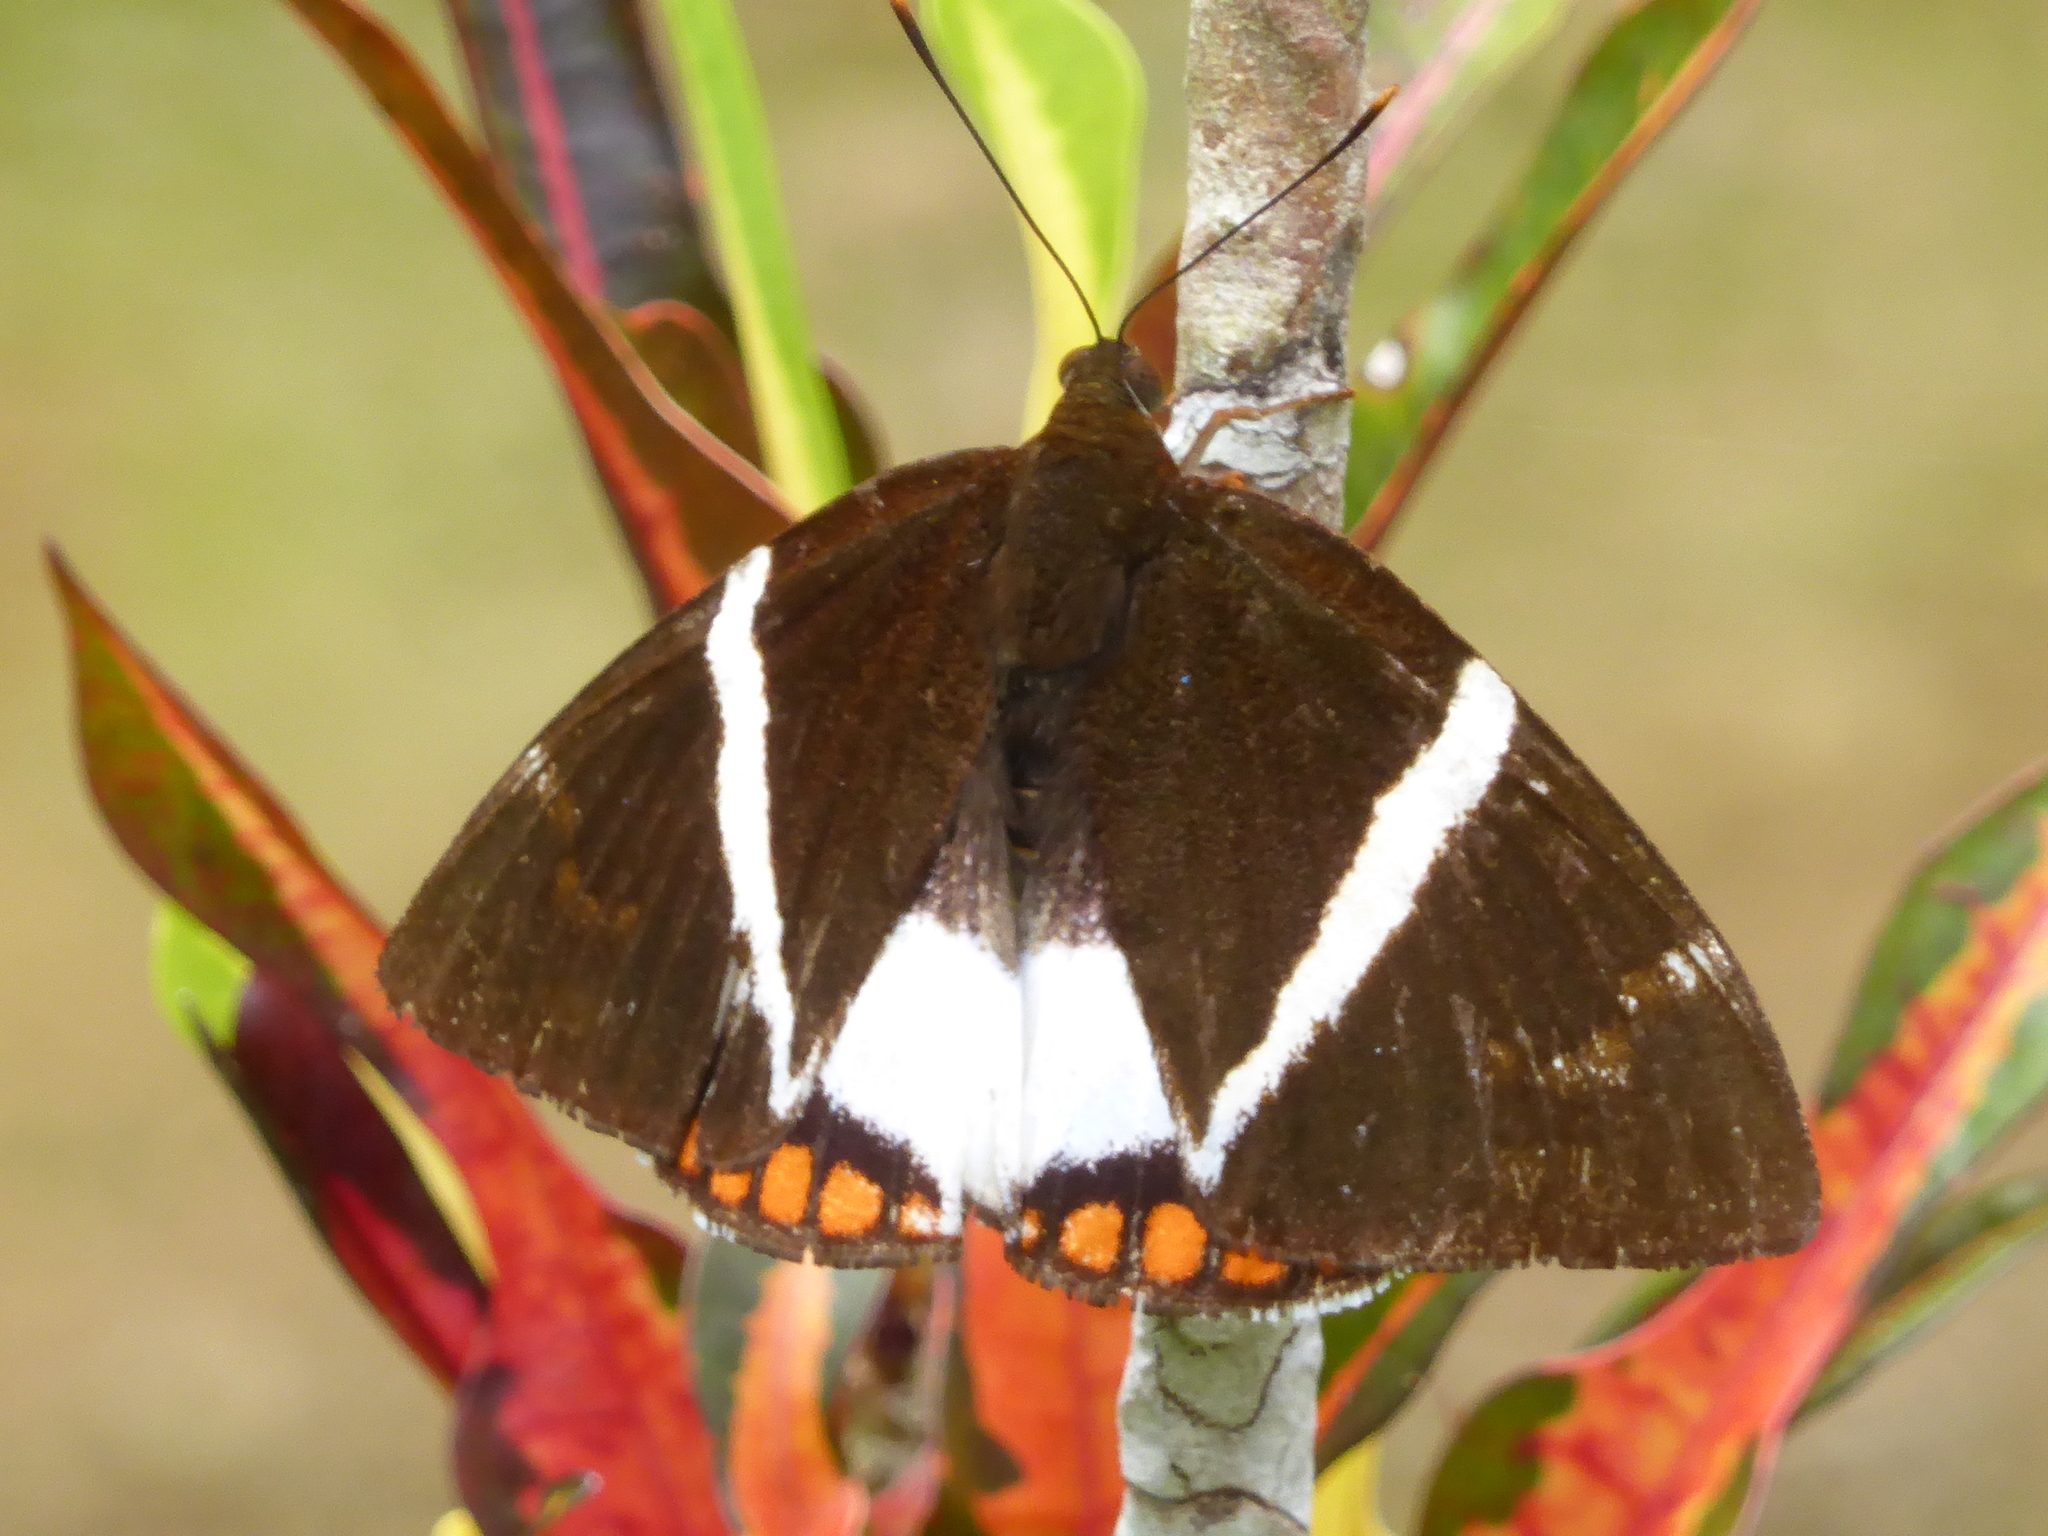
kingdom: Animalia
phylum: Arthropoda
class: Insecta
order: Lepidoptera
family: Castniidae
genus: Castnia
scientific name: Castnia licus
